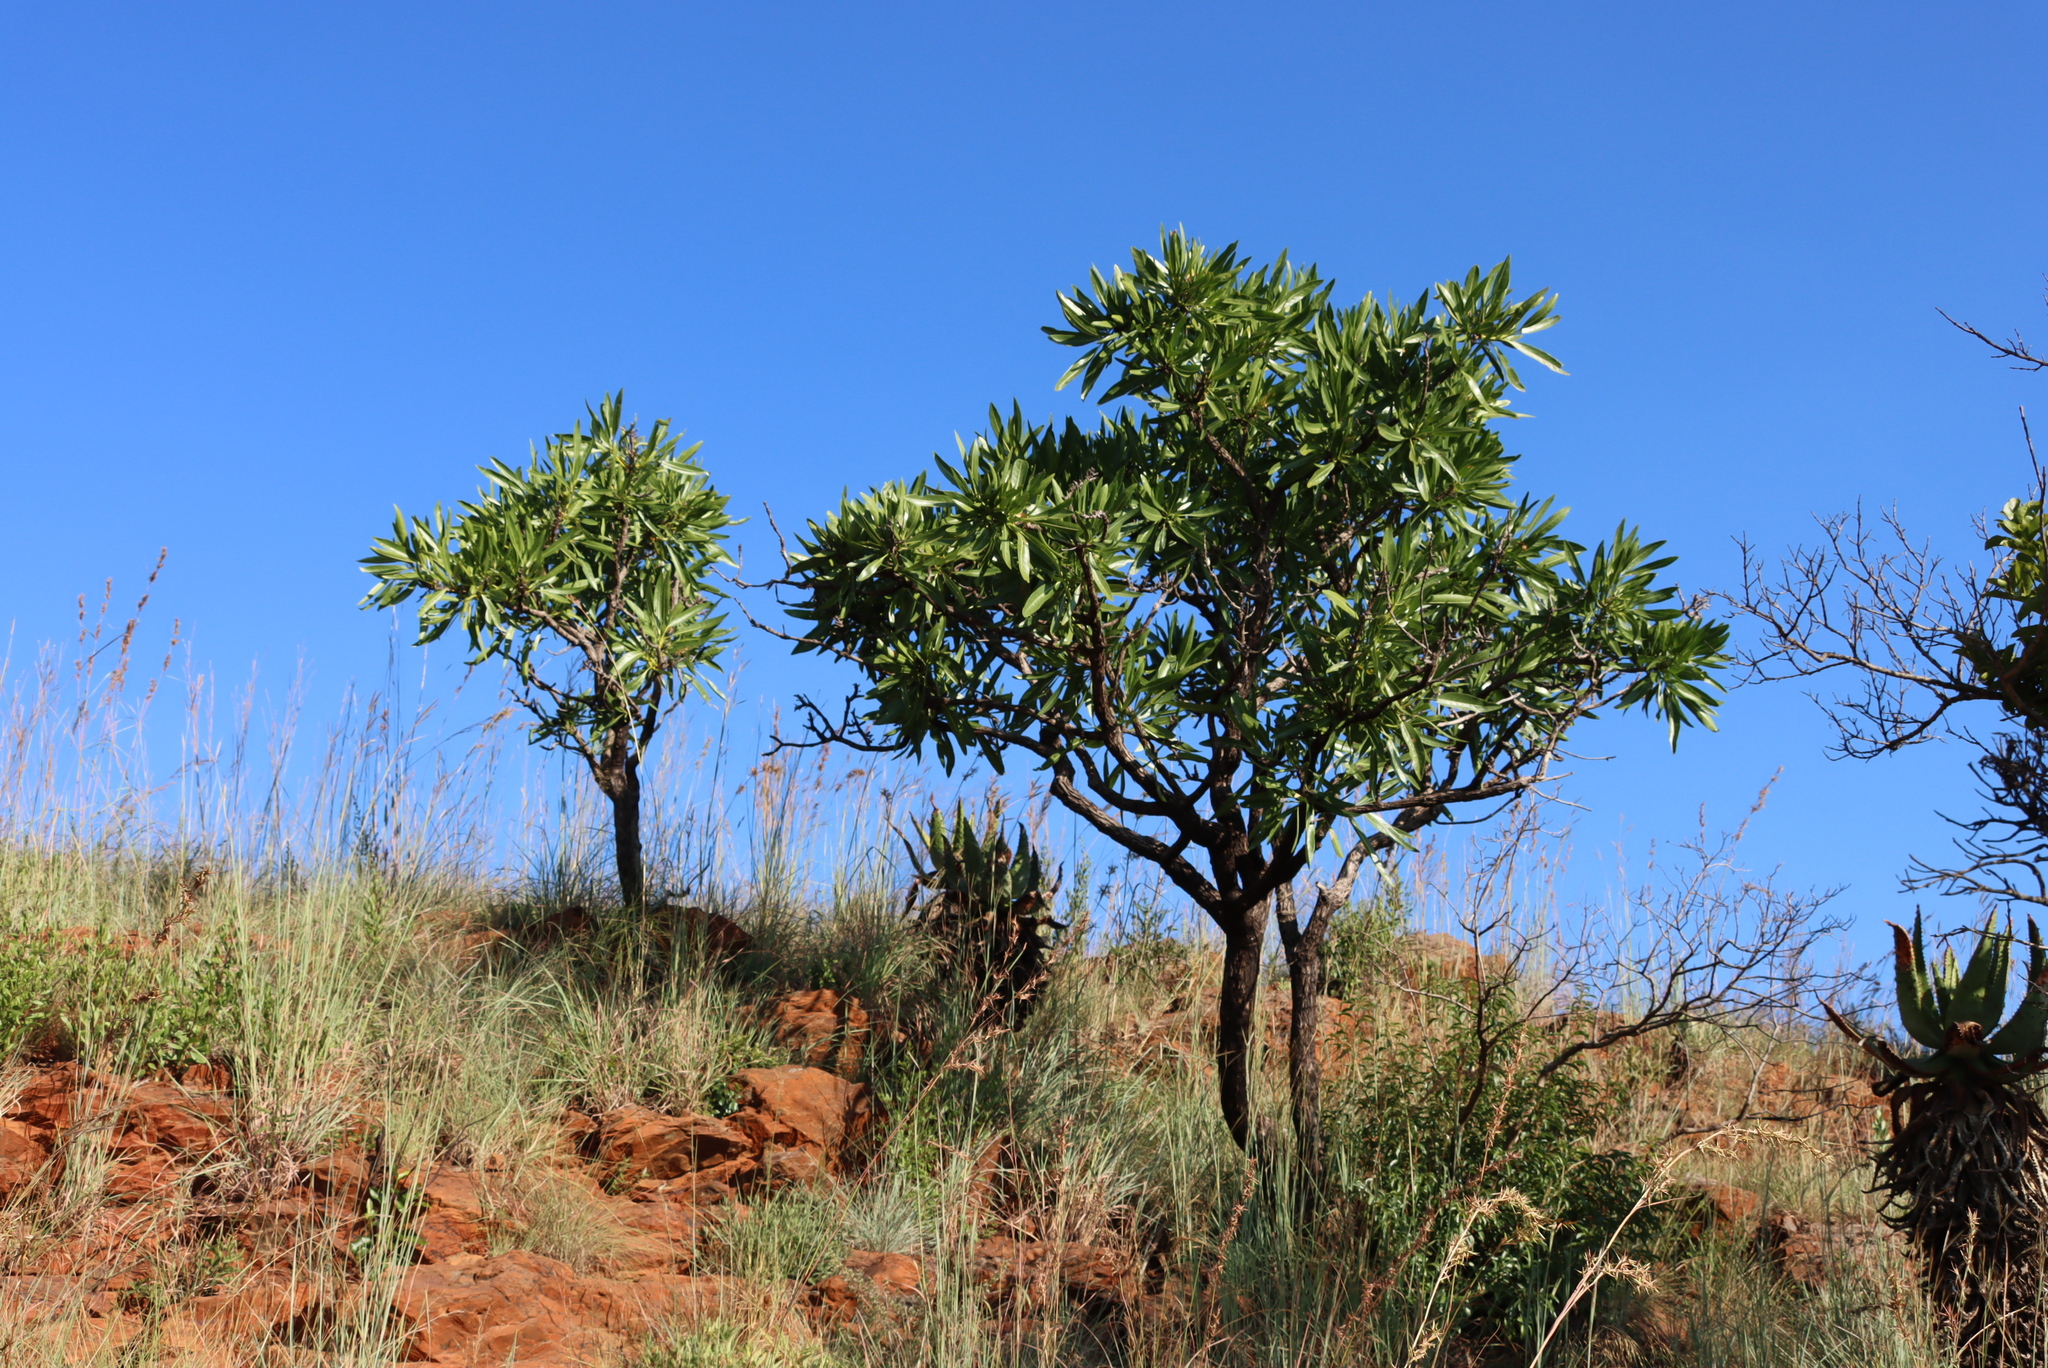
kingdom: Plantae
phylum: Tracheophyta
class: Magnoliopsida
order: Gentianales
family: Rubiaceae
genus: Pavetta
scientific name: Pavetta edentula
